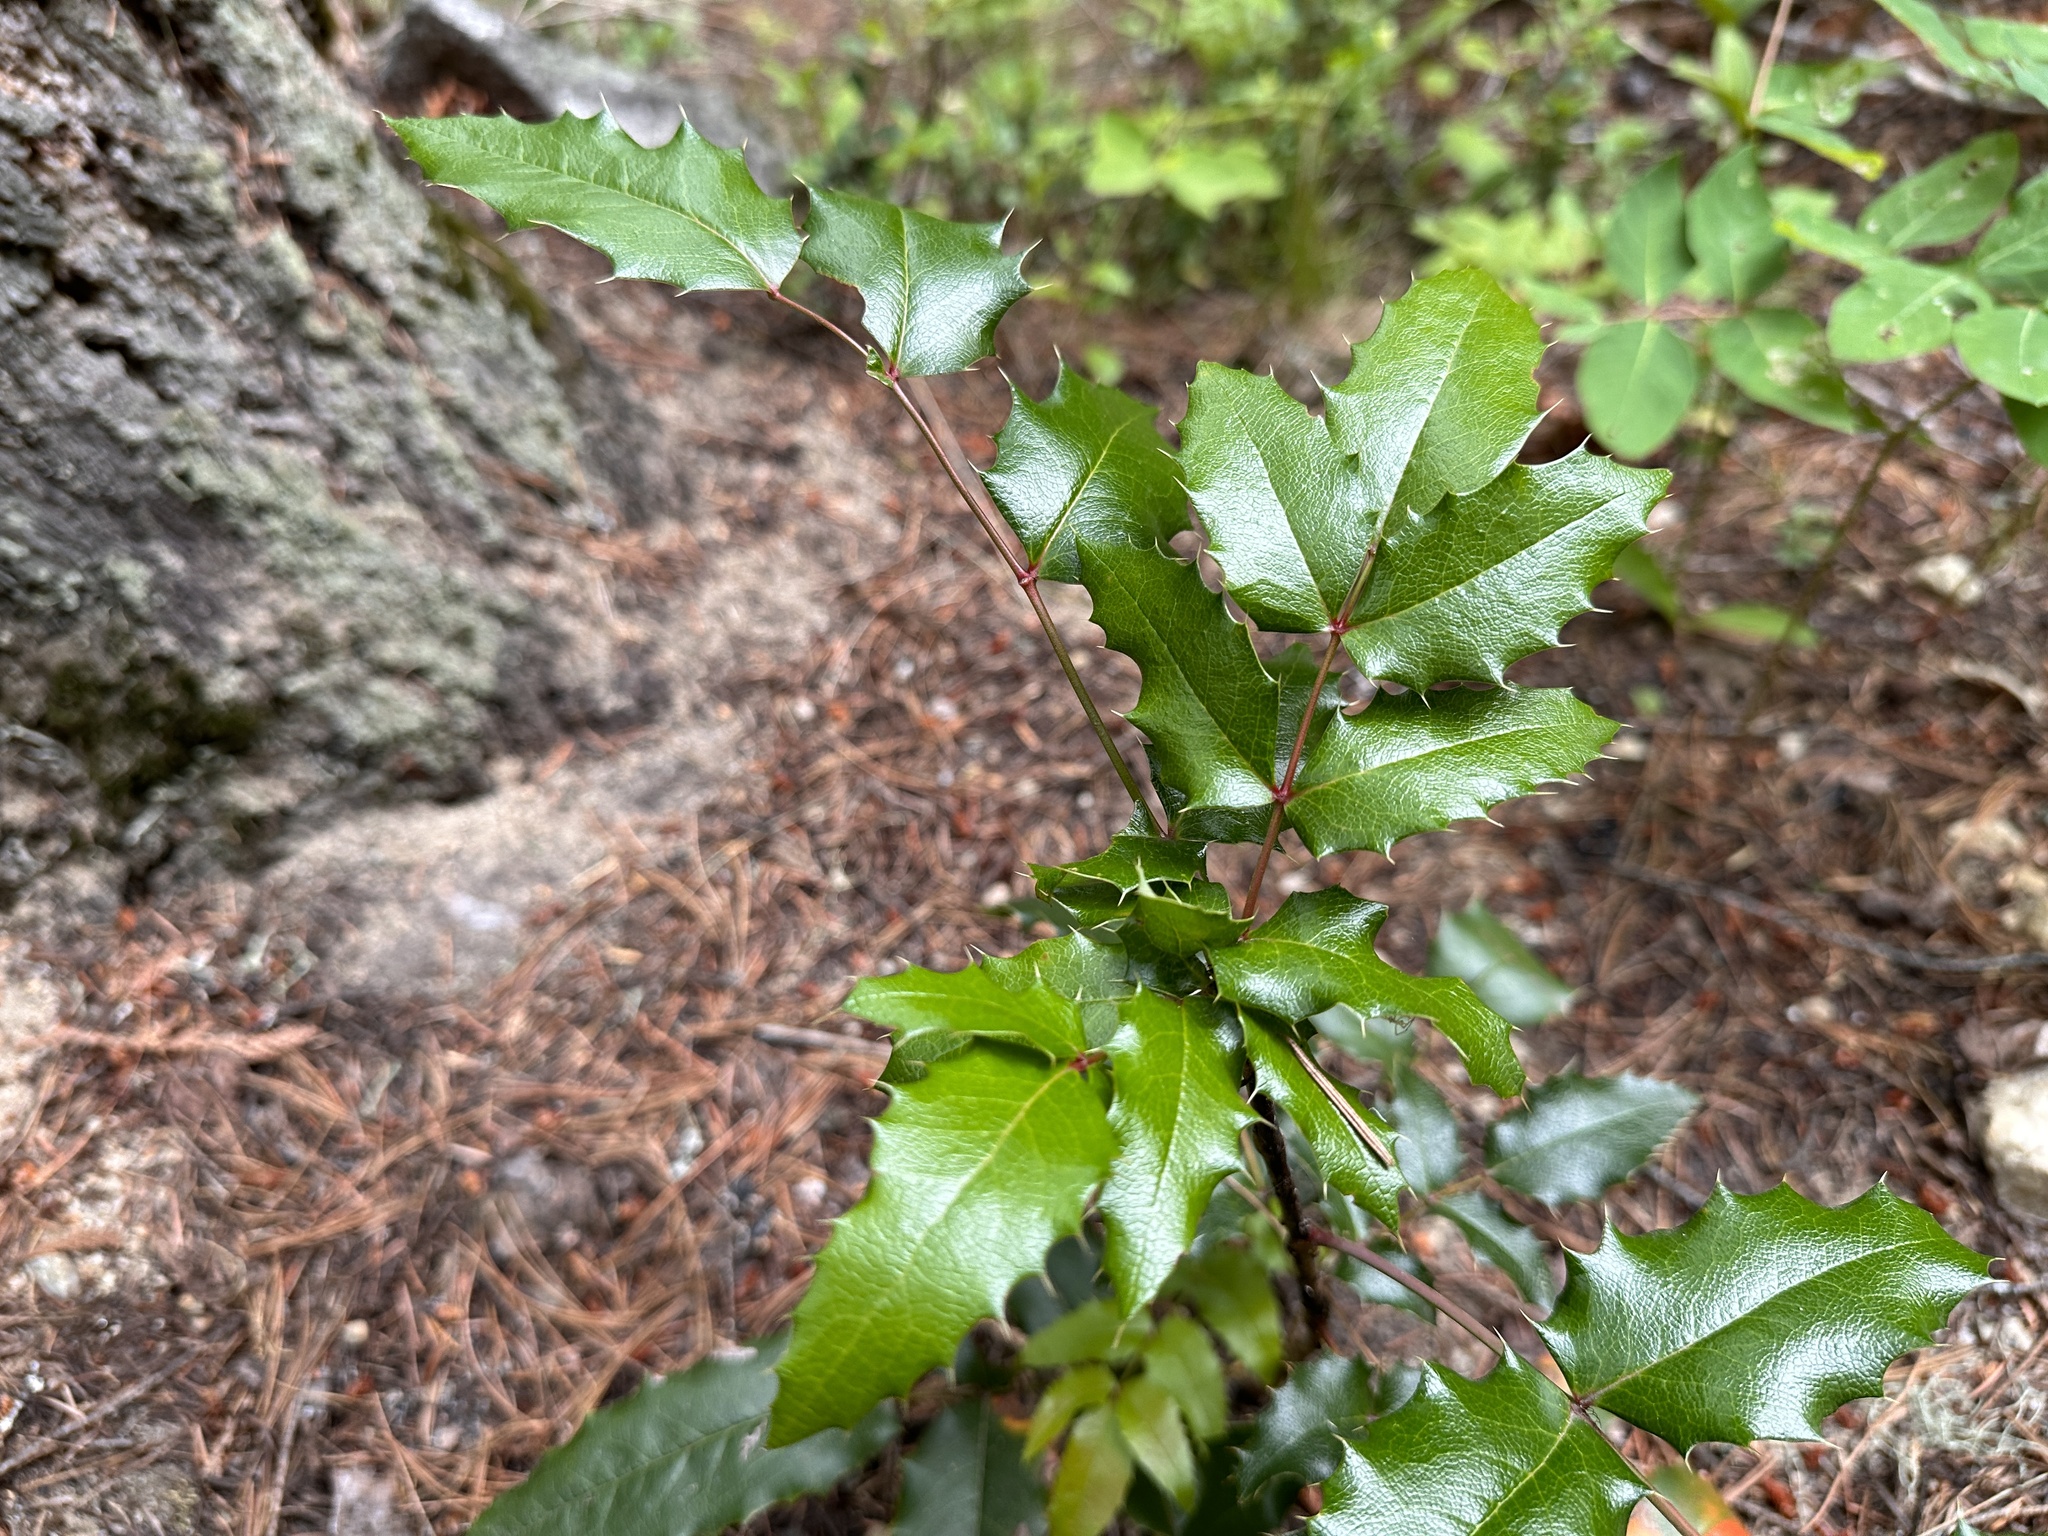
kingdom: Plantae
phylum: Tracheophyta
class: Magnoliopsida
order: Ranunculales
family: Berberidaceae
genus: Mahonia
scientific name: Mahonia aquifolium
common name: Oregon-grape
